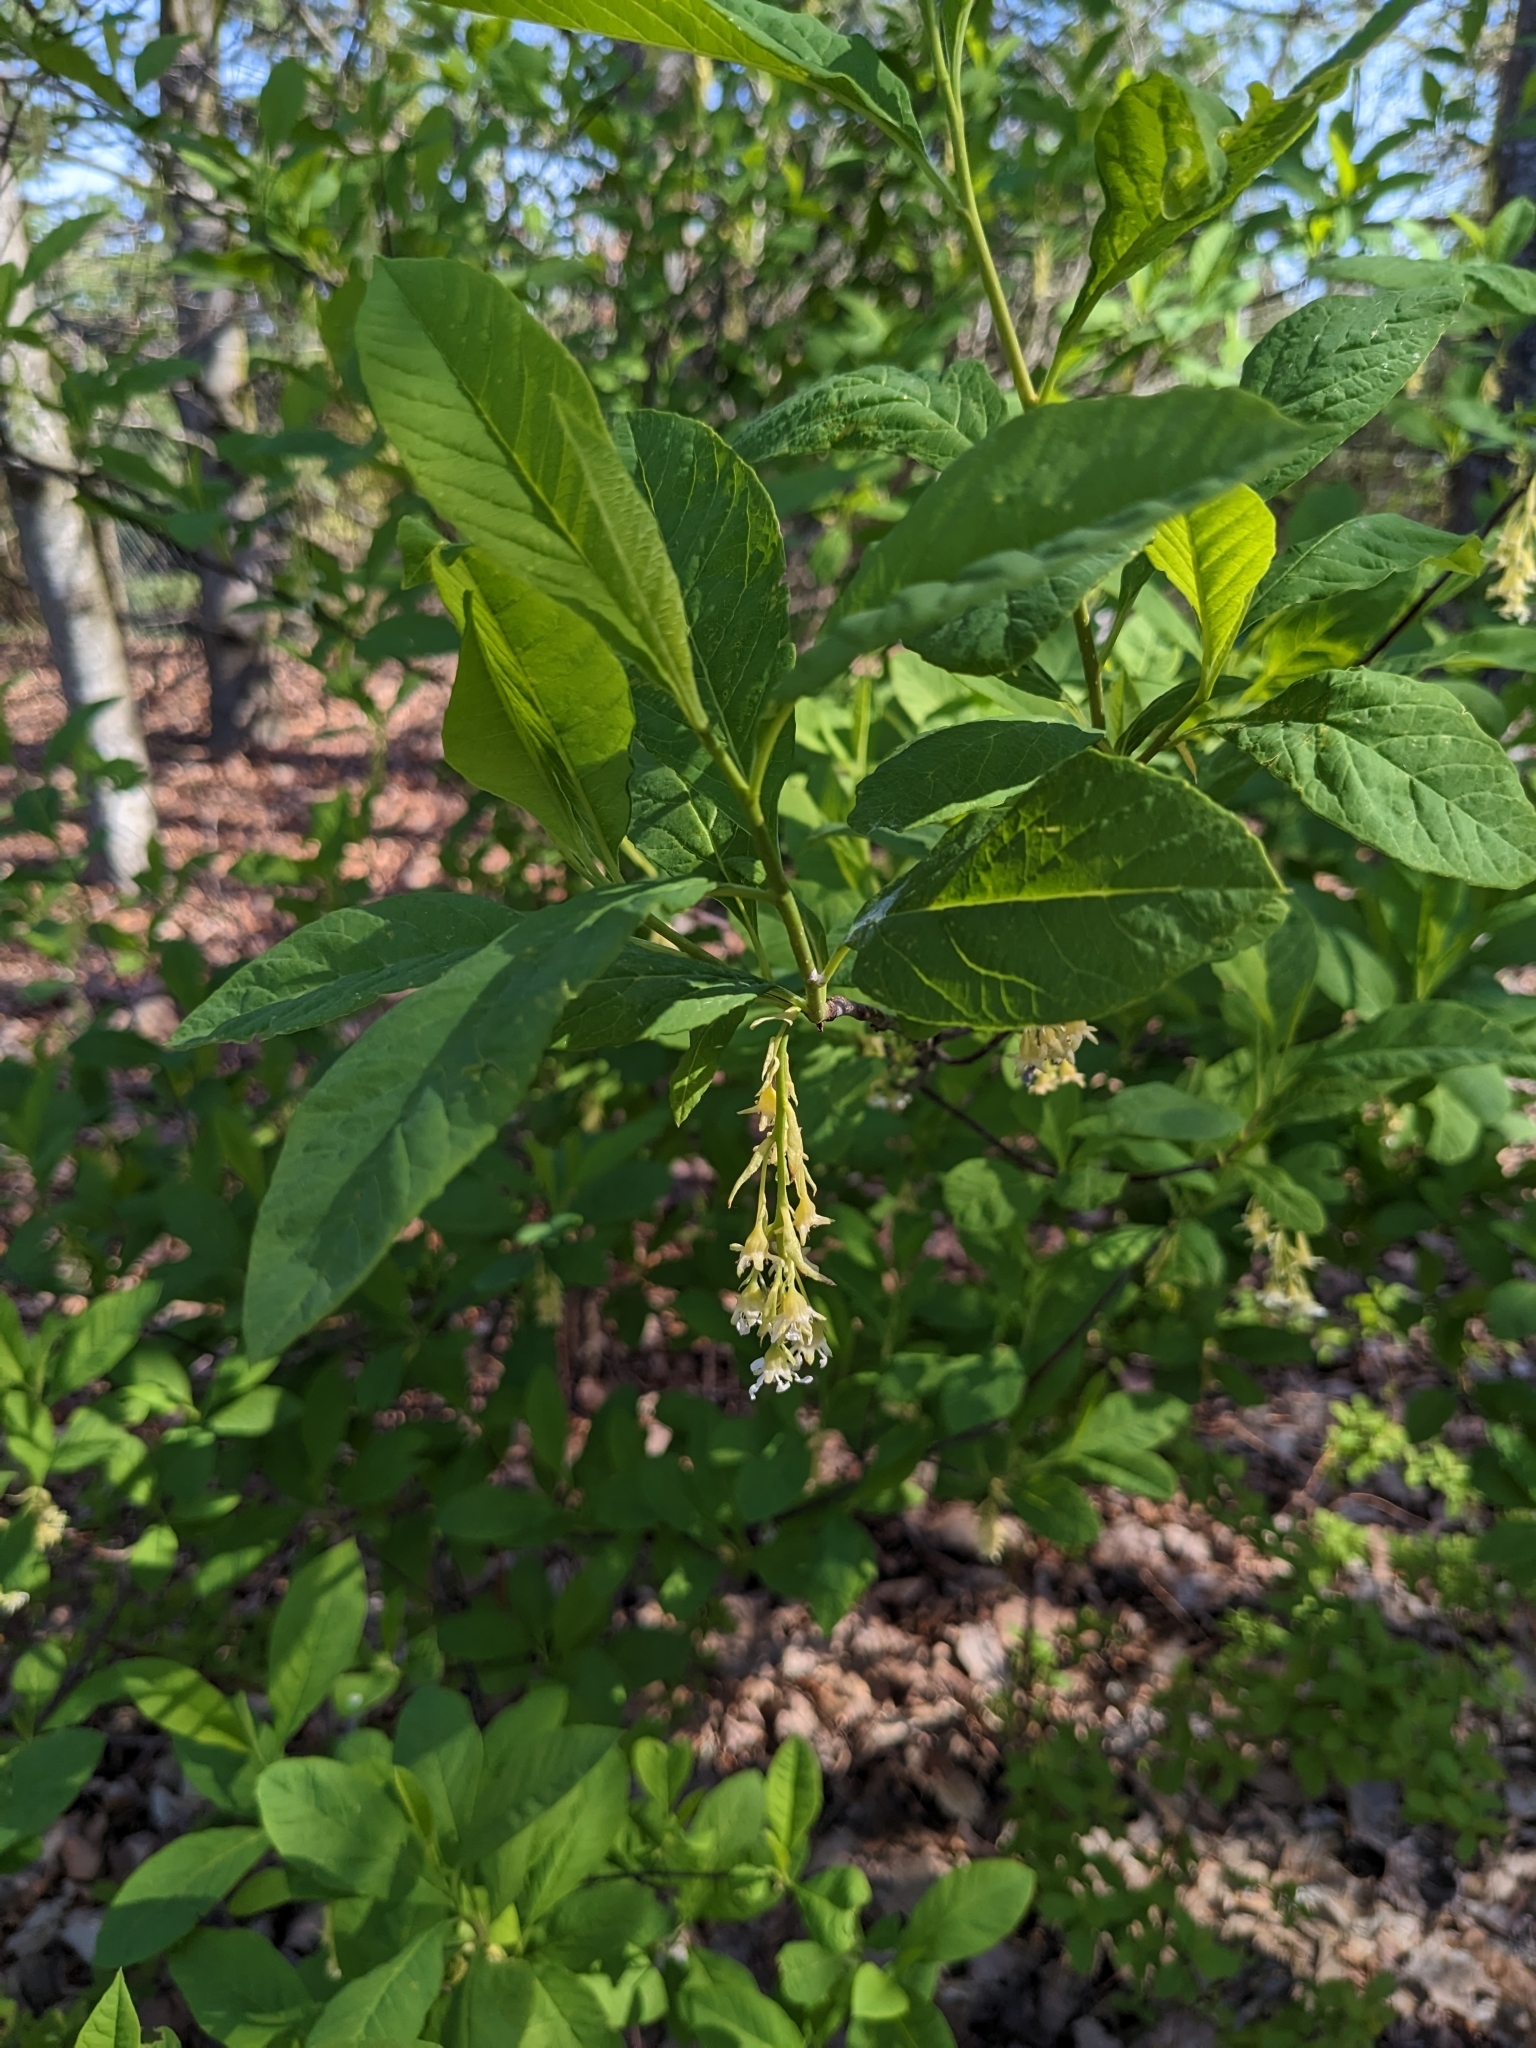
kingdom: Plantae
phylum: Tracheophyta
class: Magnoliopsida
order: Rosales
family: Rosaceae
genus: Oemleria
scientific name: Oemleria cerasiformis
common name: Osoberry
